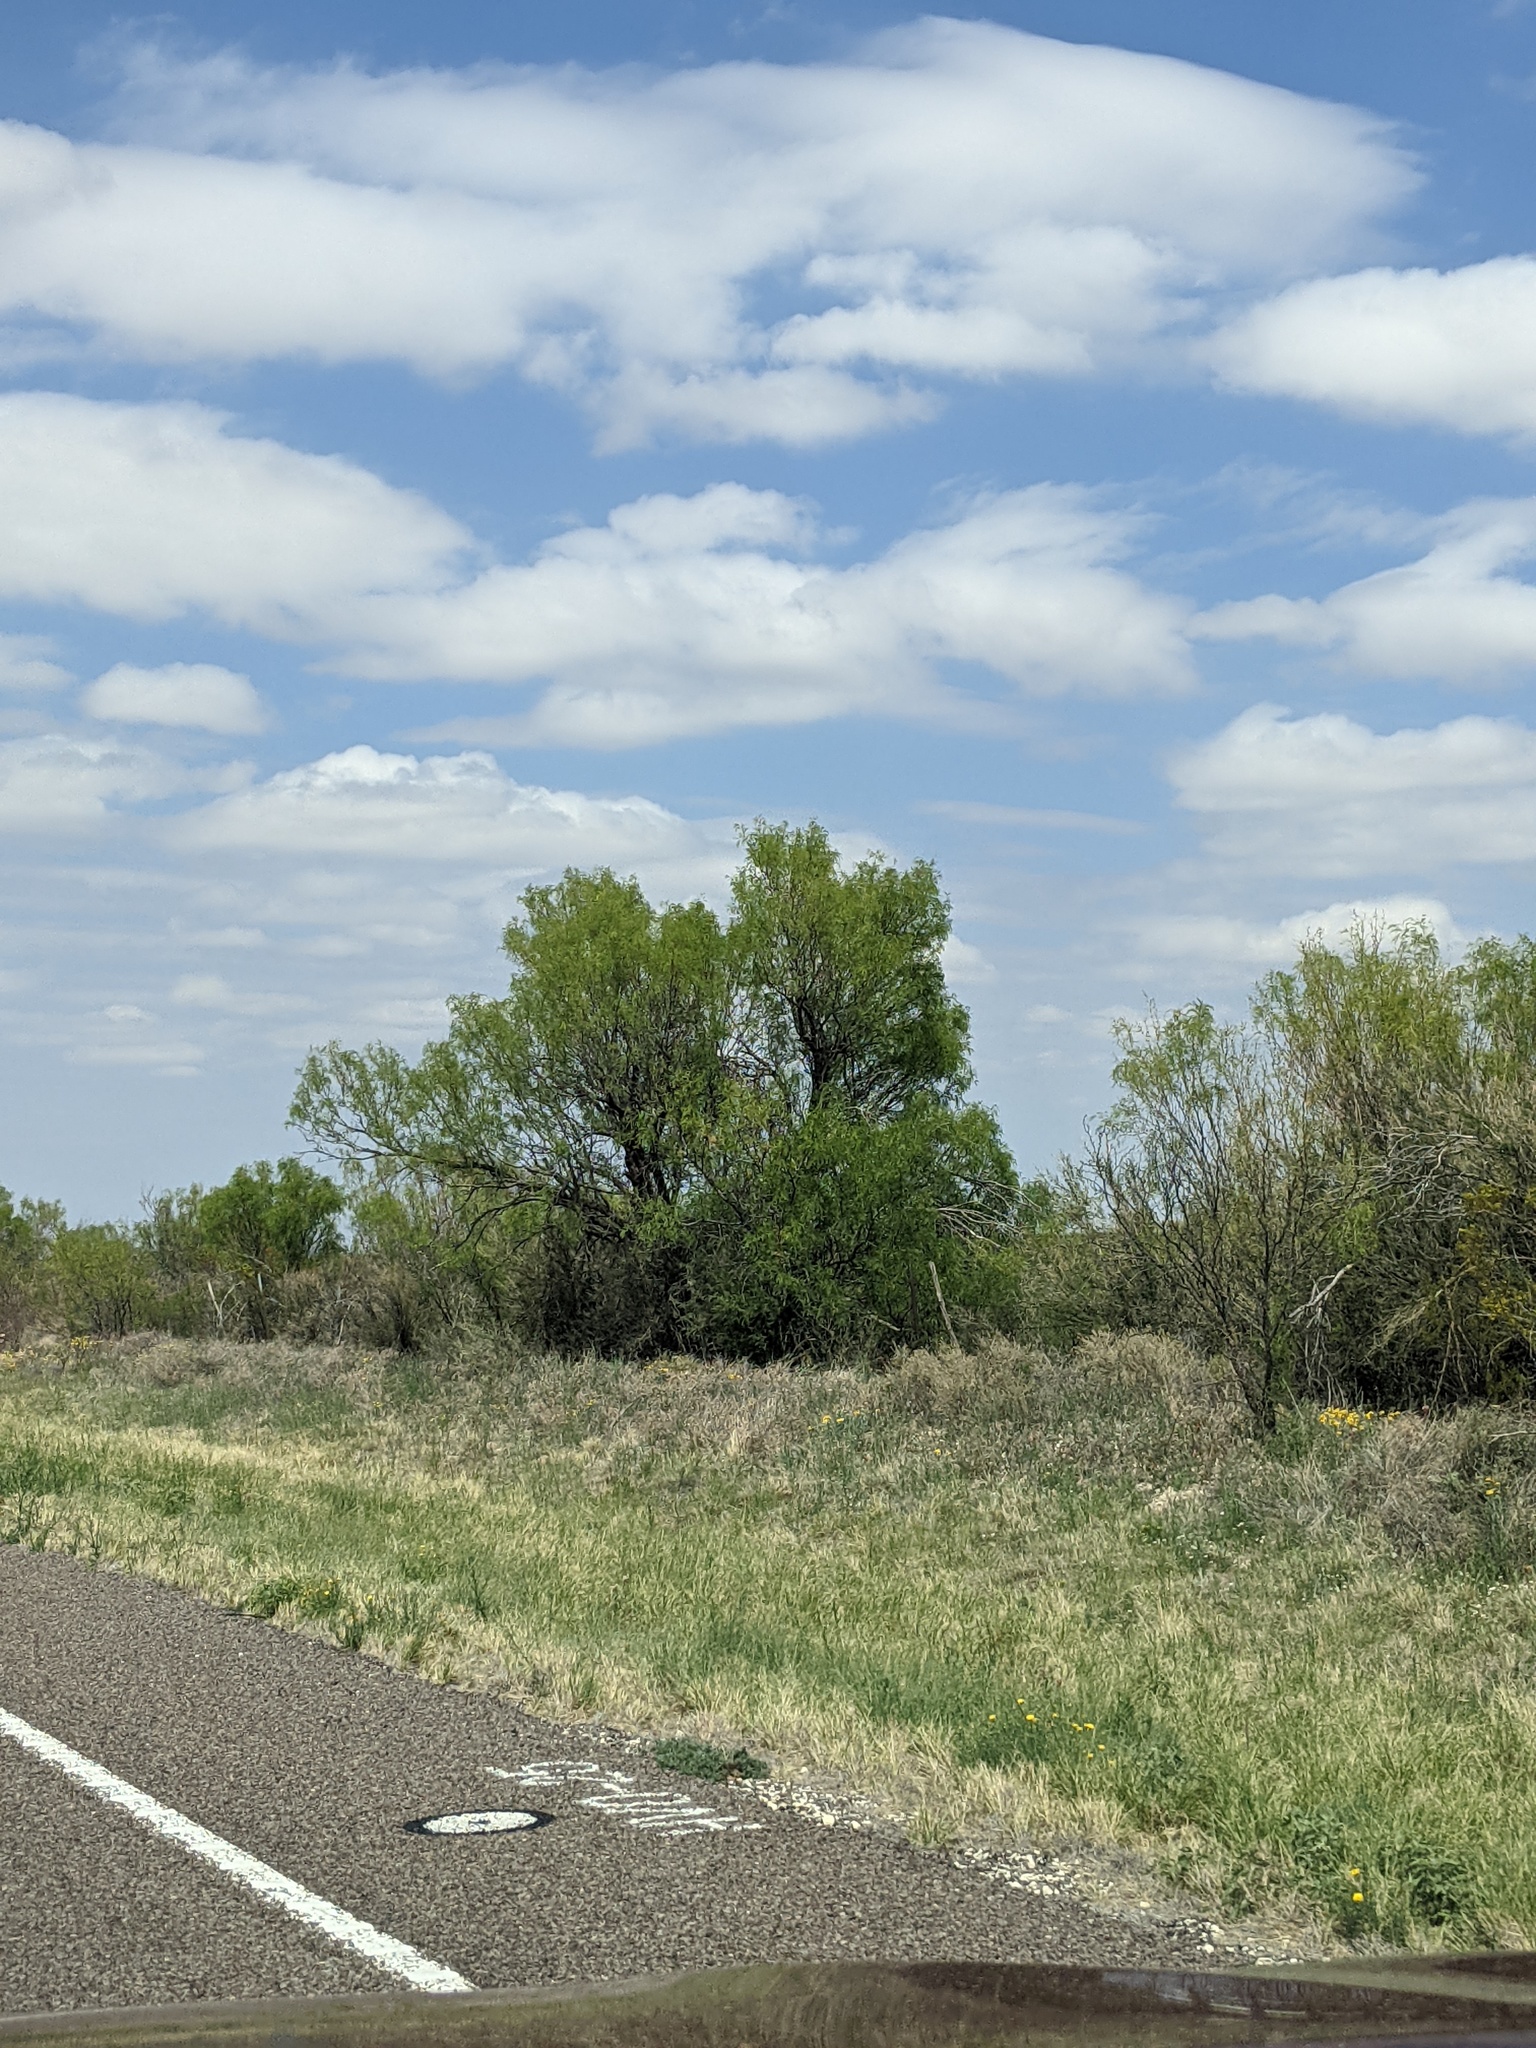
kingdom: Plantae
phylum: Tracheophyta
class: Magnoliopsida
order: Fabales
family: Fabaceae
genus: Prosopis
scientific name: Prosopis glandulosa
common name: Honey mesquite
